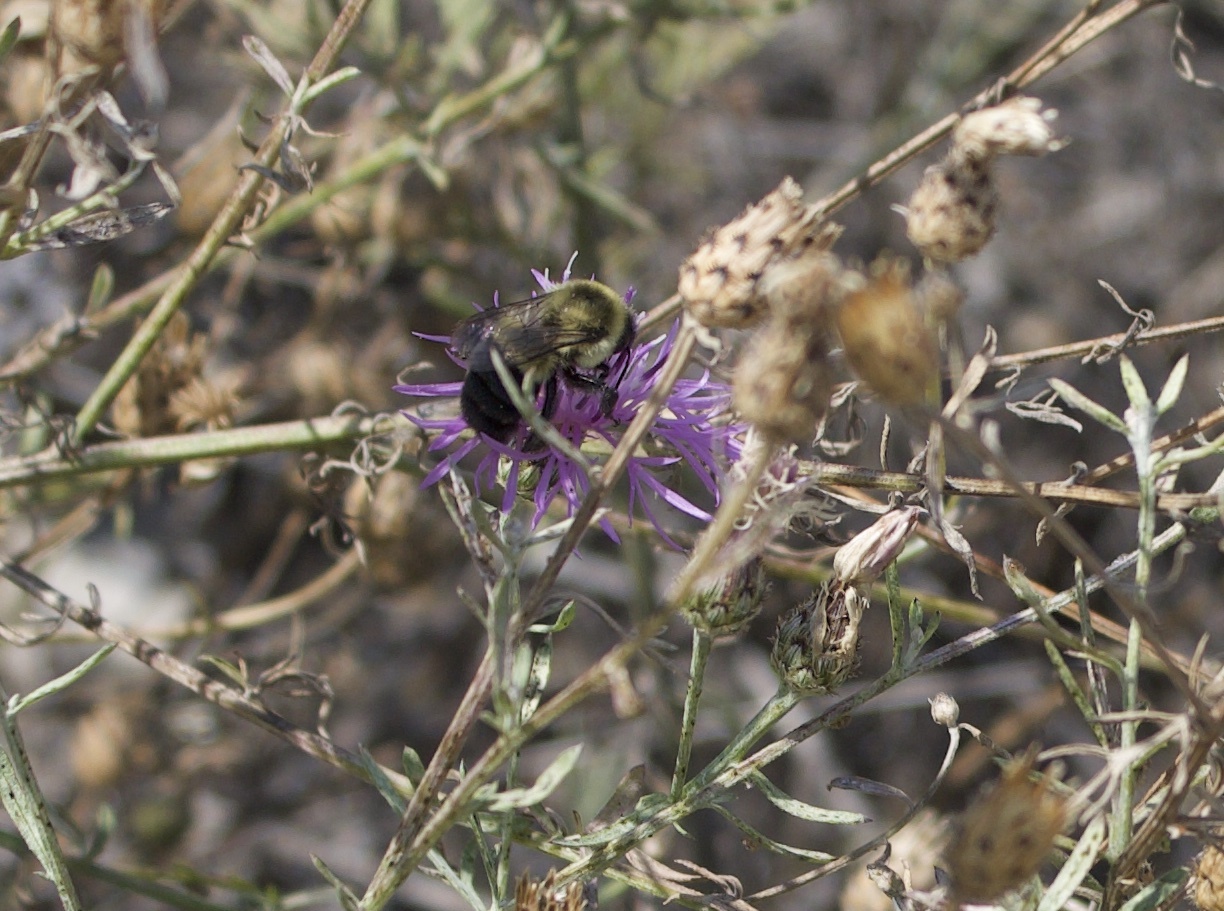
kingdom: Animalia
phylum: Arthropoda
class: Insecta
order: Hymenoptera
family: Apidae
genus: Bombus
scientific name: Bombus impatiens
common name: Common eastern bumble bee
